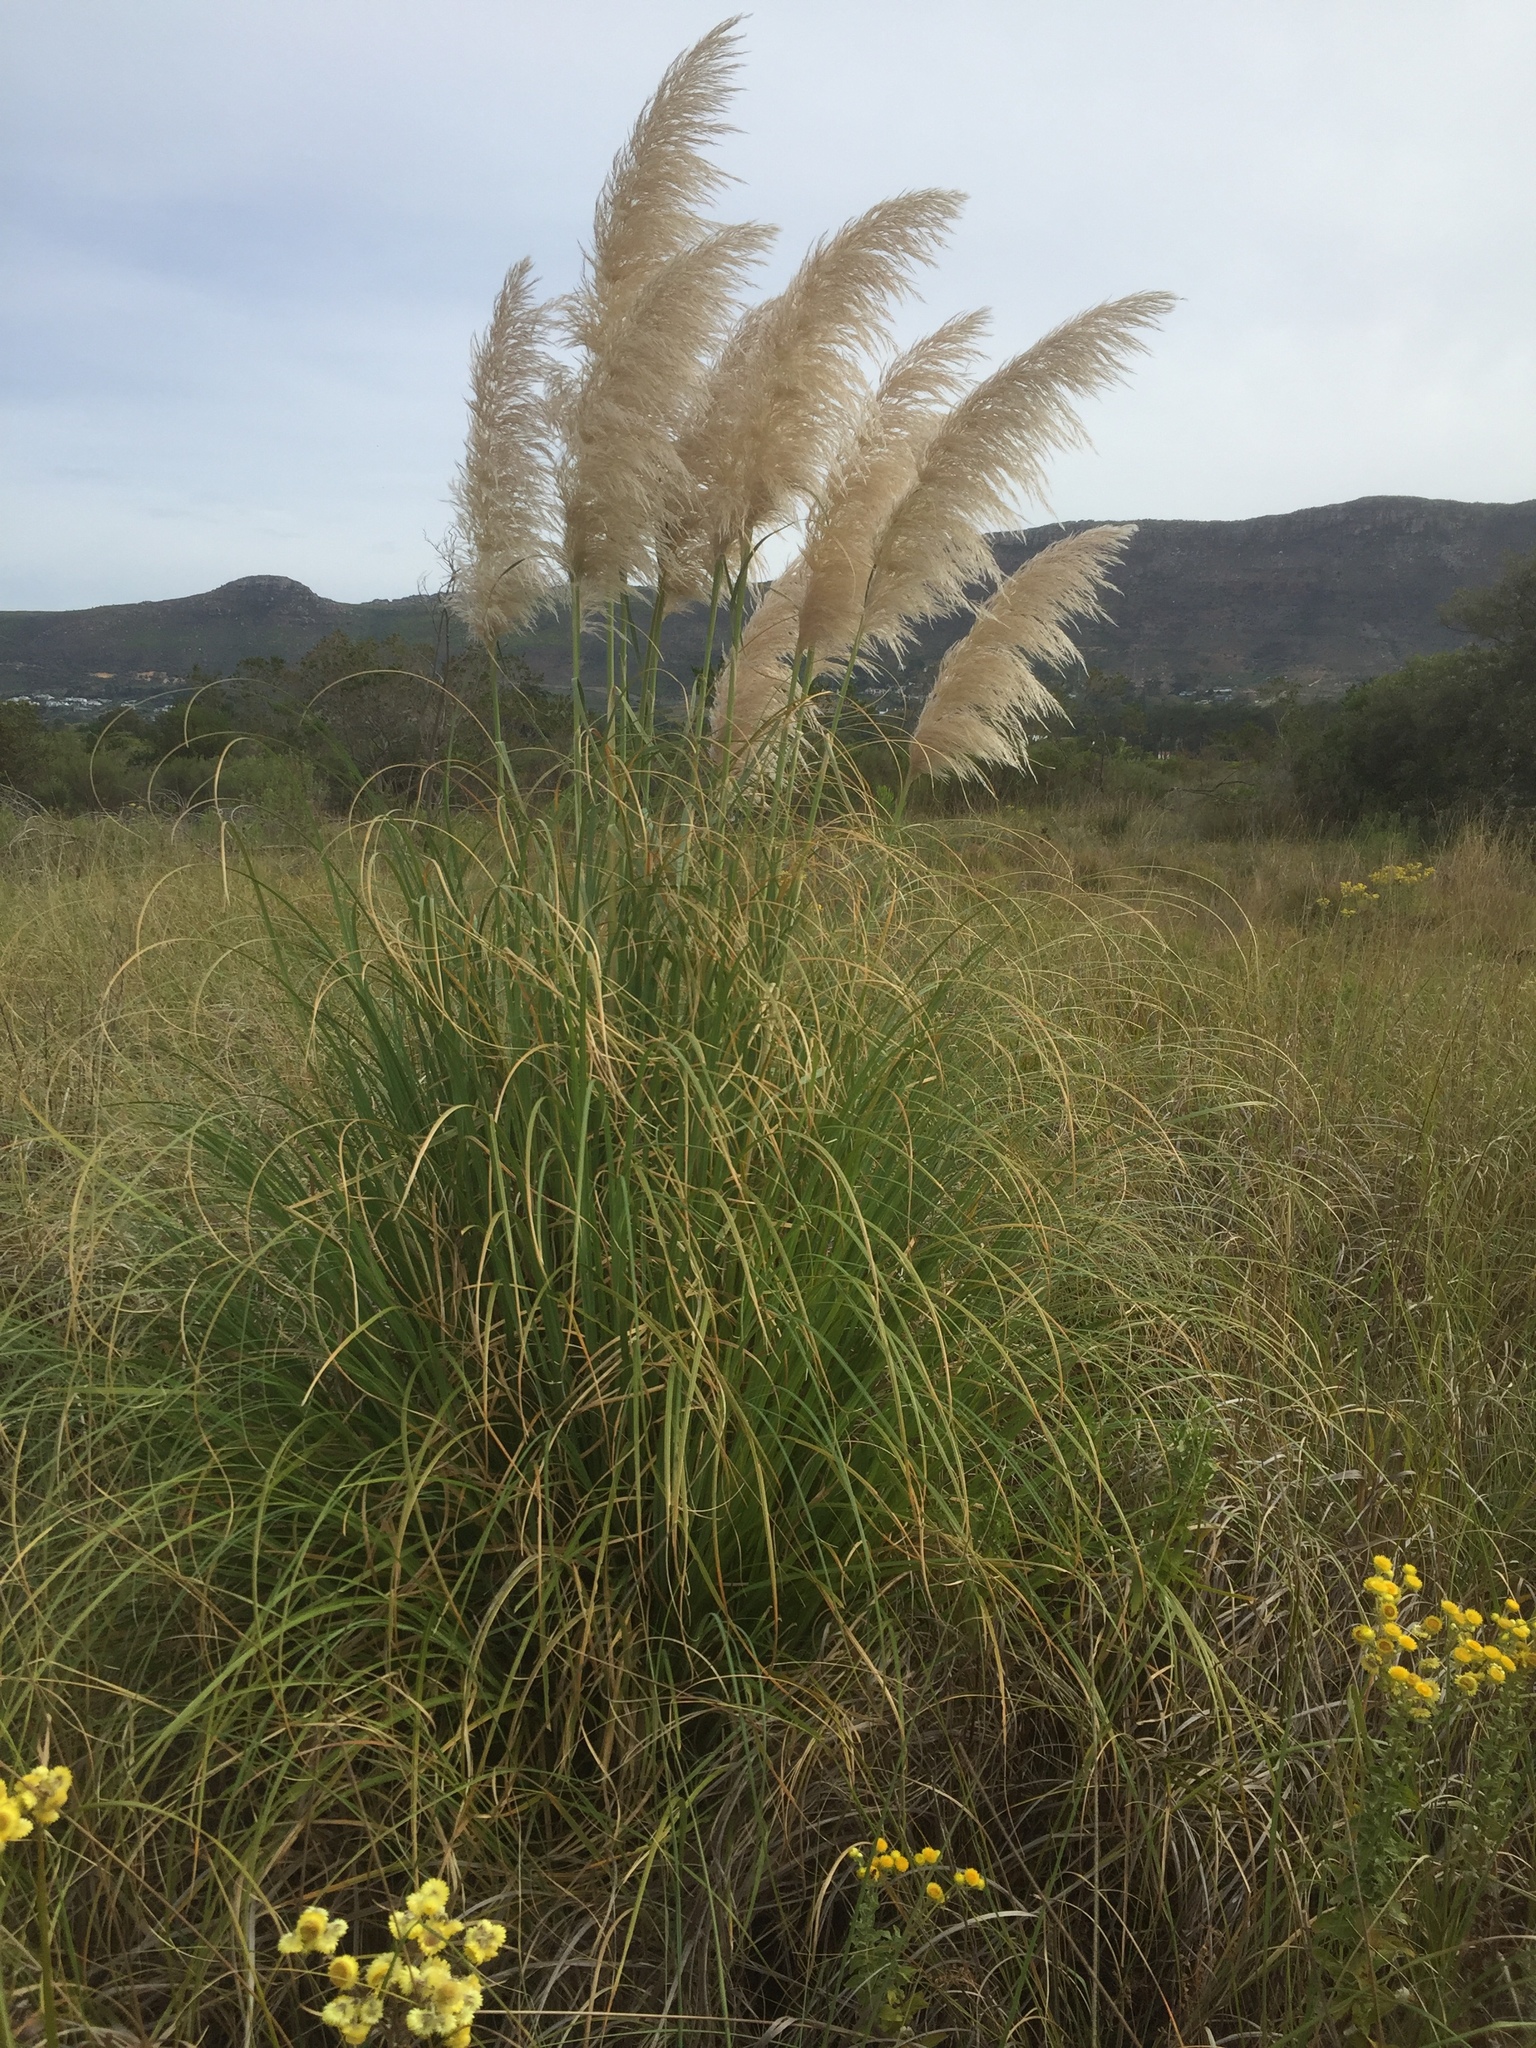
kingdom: Plantae
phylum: Tracheophyta
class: Liliopsida
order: Poales
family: Poaceae
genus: Cortaderia
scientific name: Cortaderia selloana
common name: Uruguayan pampas grass
